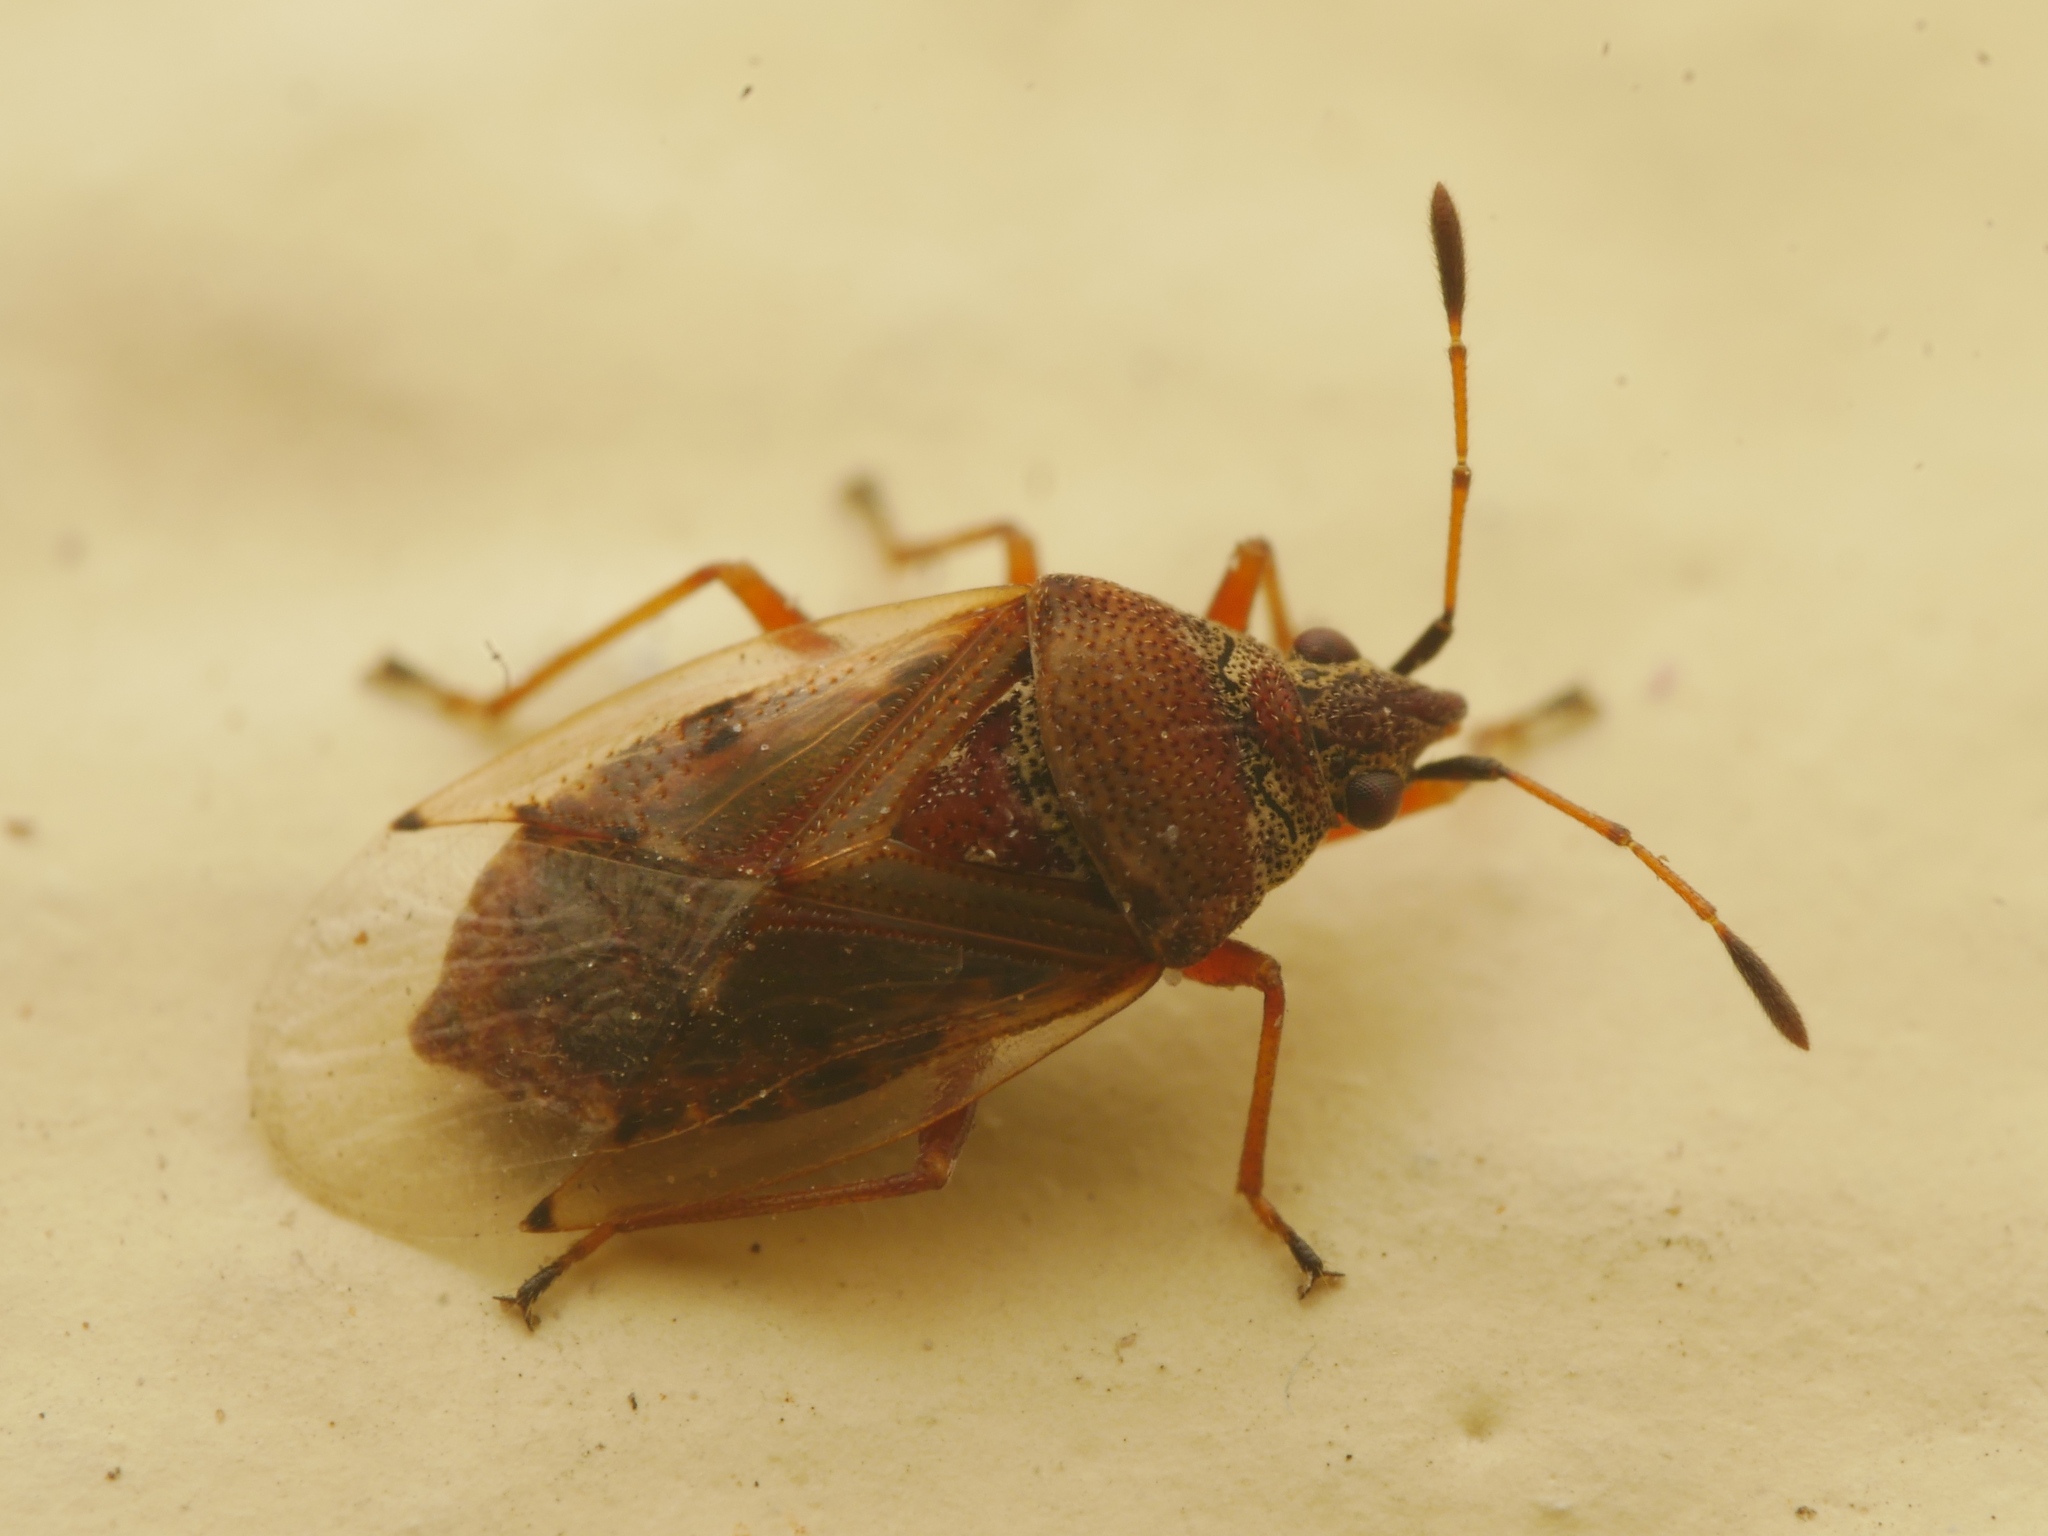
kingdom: Animalia
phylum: Arthropoda
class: Insecta
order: Hemiptera
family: Lygaeidae
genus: Kleidocerys
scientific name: Kleidocerys resedae
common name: Birch catkin bug
